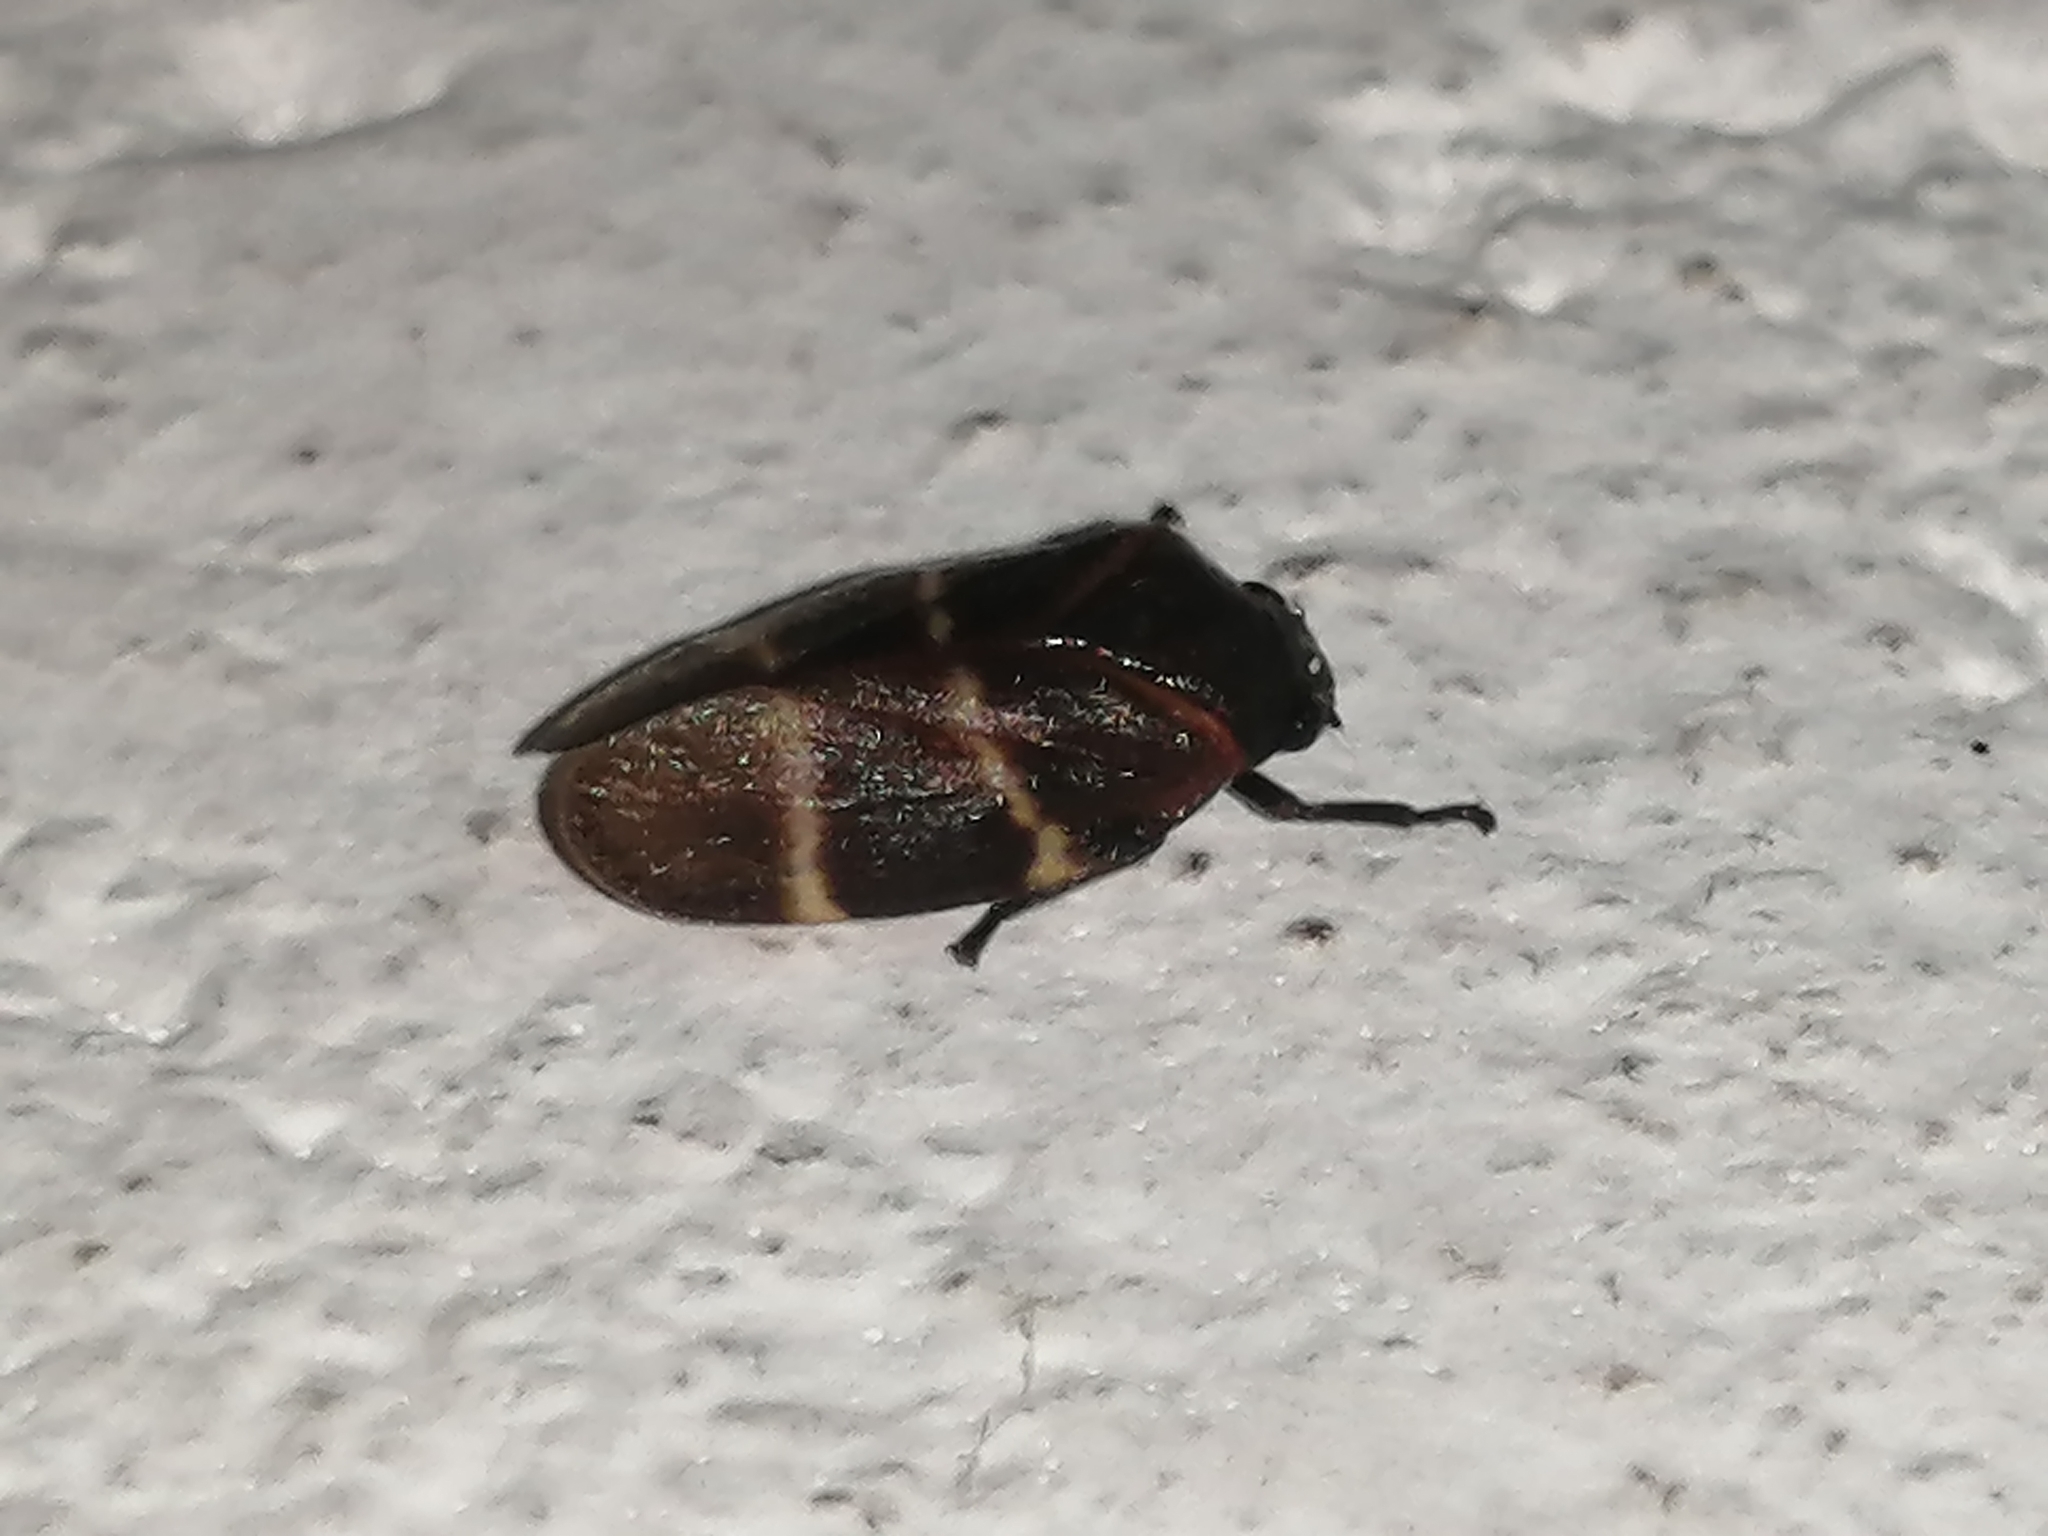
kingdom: Animalia
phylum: Arthropoda
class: Insecta
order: Hemiptera
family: Cercopidae
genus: Aeneolamia
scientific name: Aeneolamia contigua
